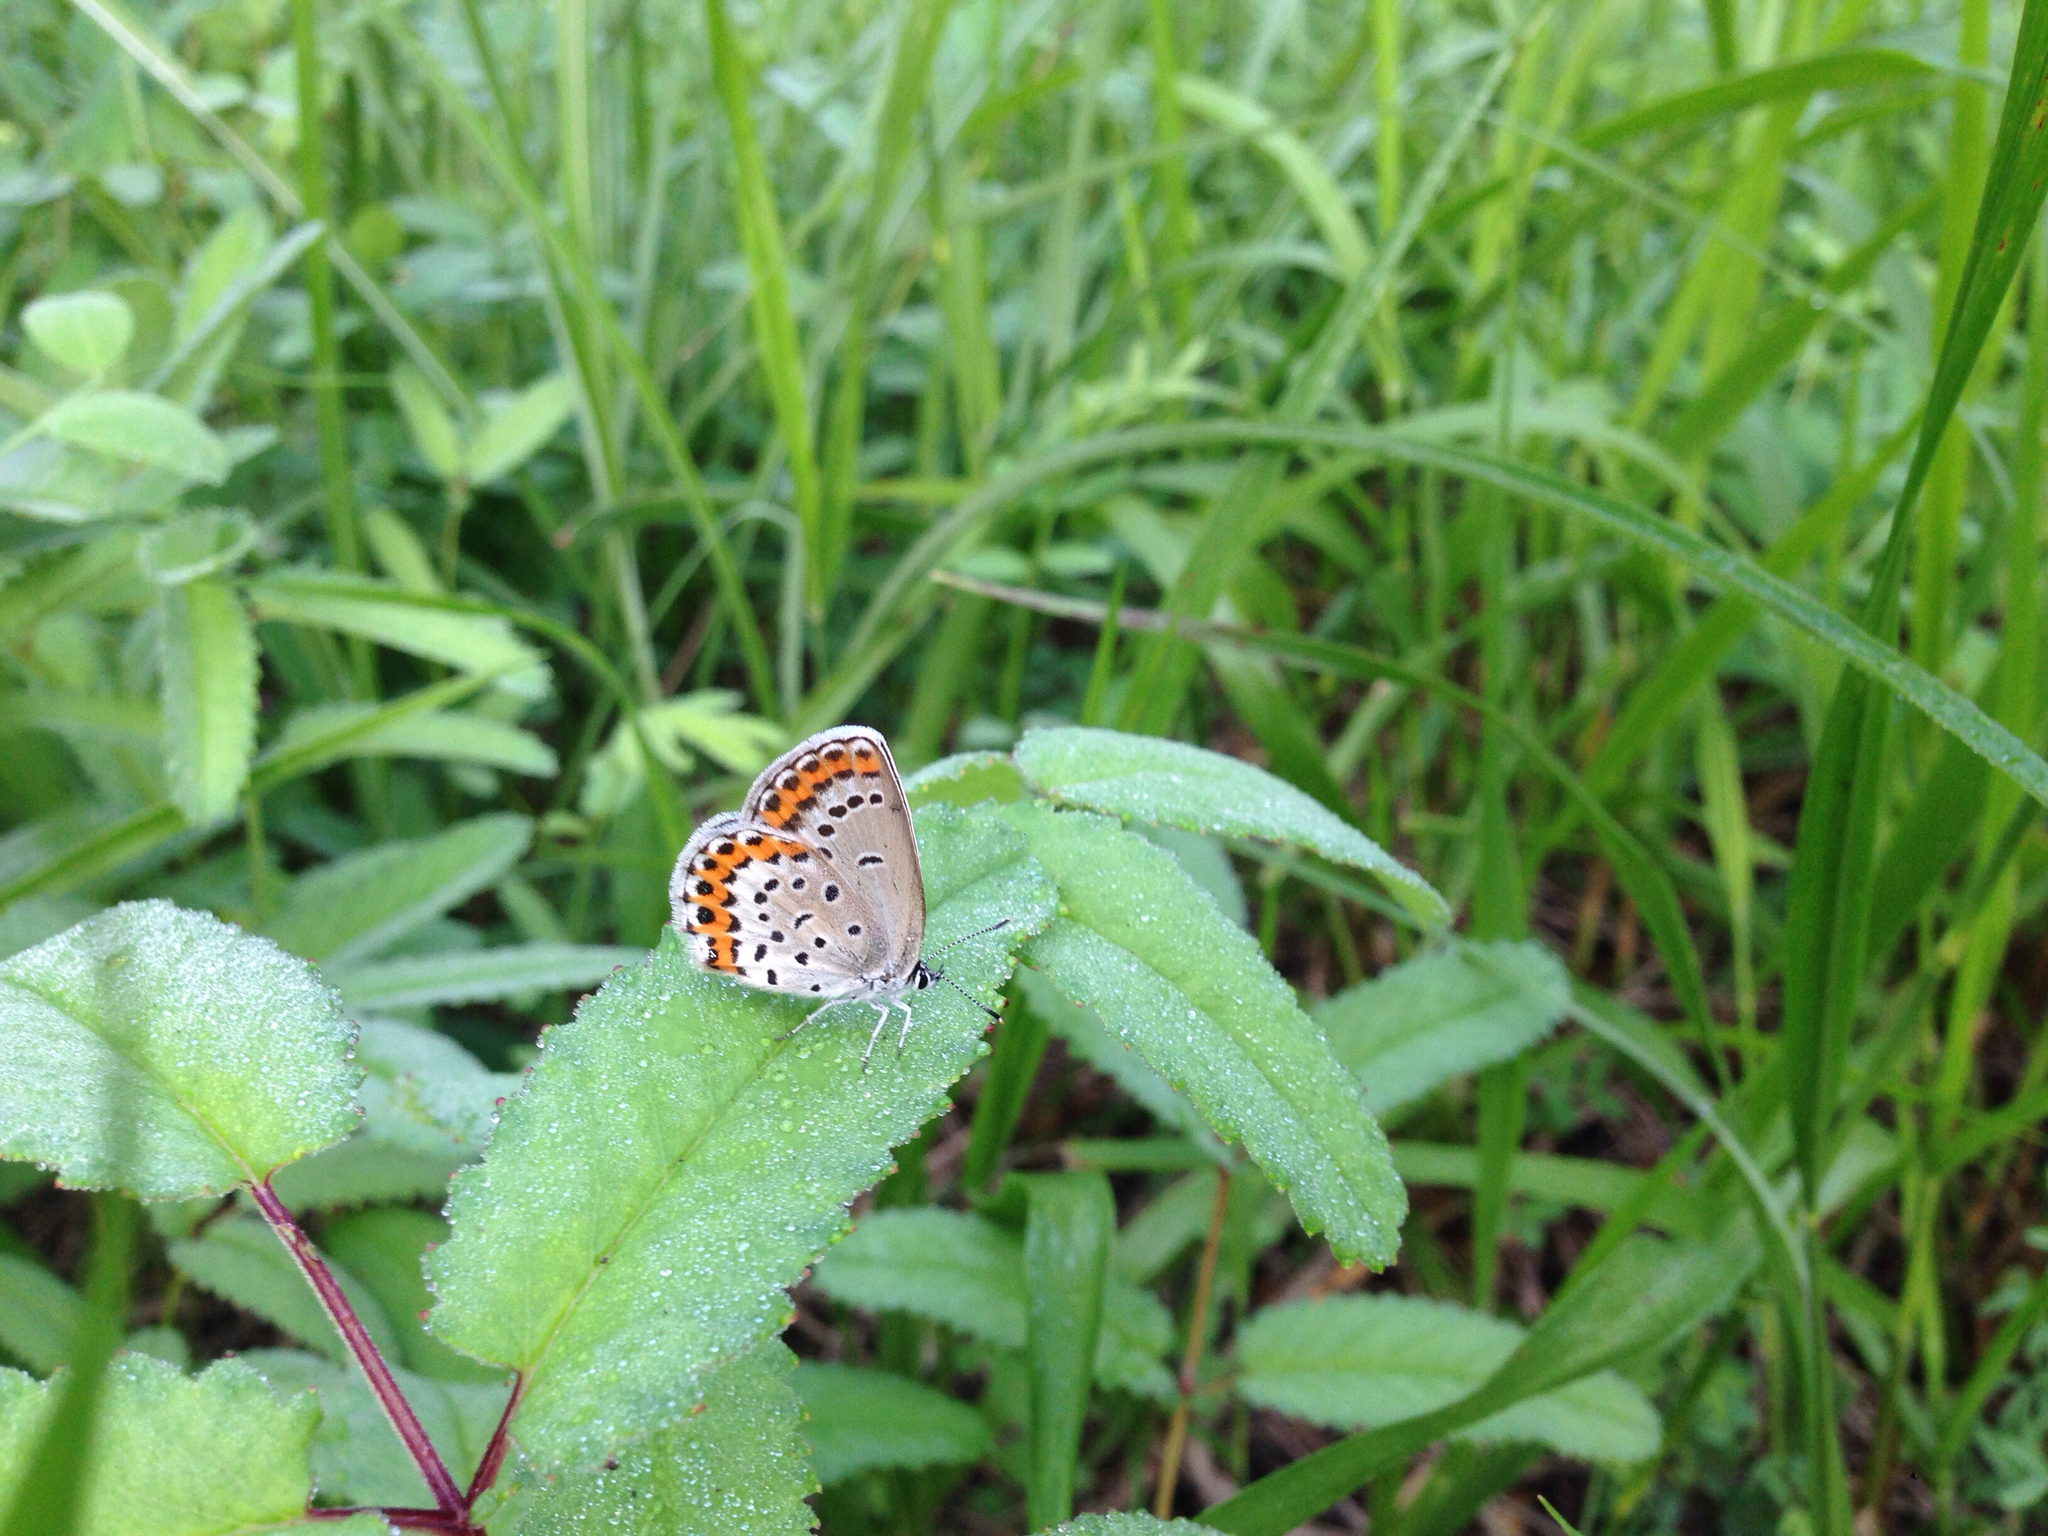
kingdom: Animalia
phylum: Arthropoda
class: Insecta
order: Lepidoptera
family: Lycaenidae
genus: Plebejus
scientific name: Plebejus argyrognomon
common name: Reverdin's blue
